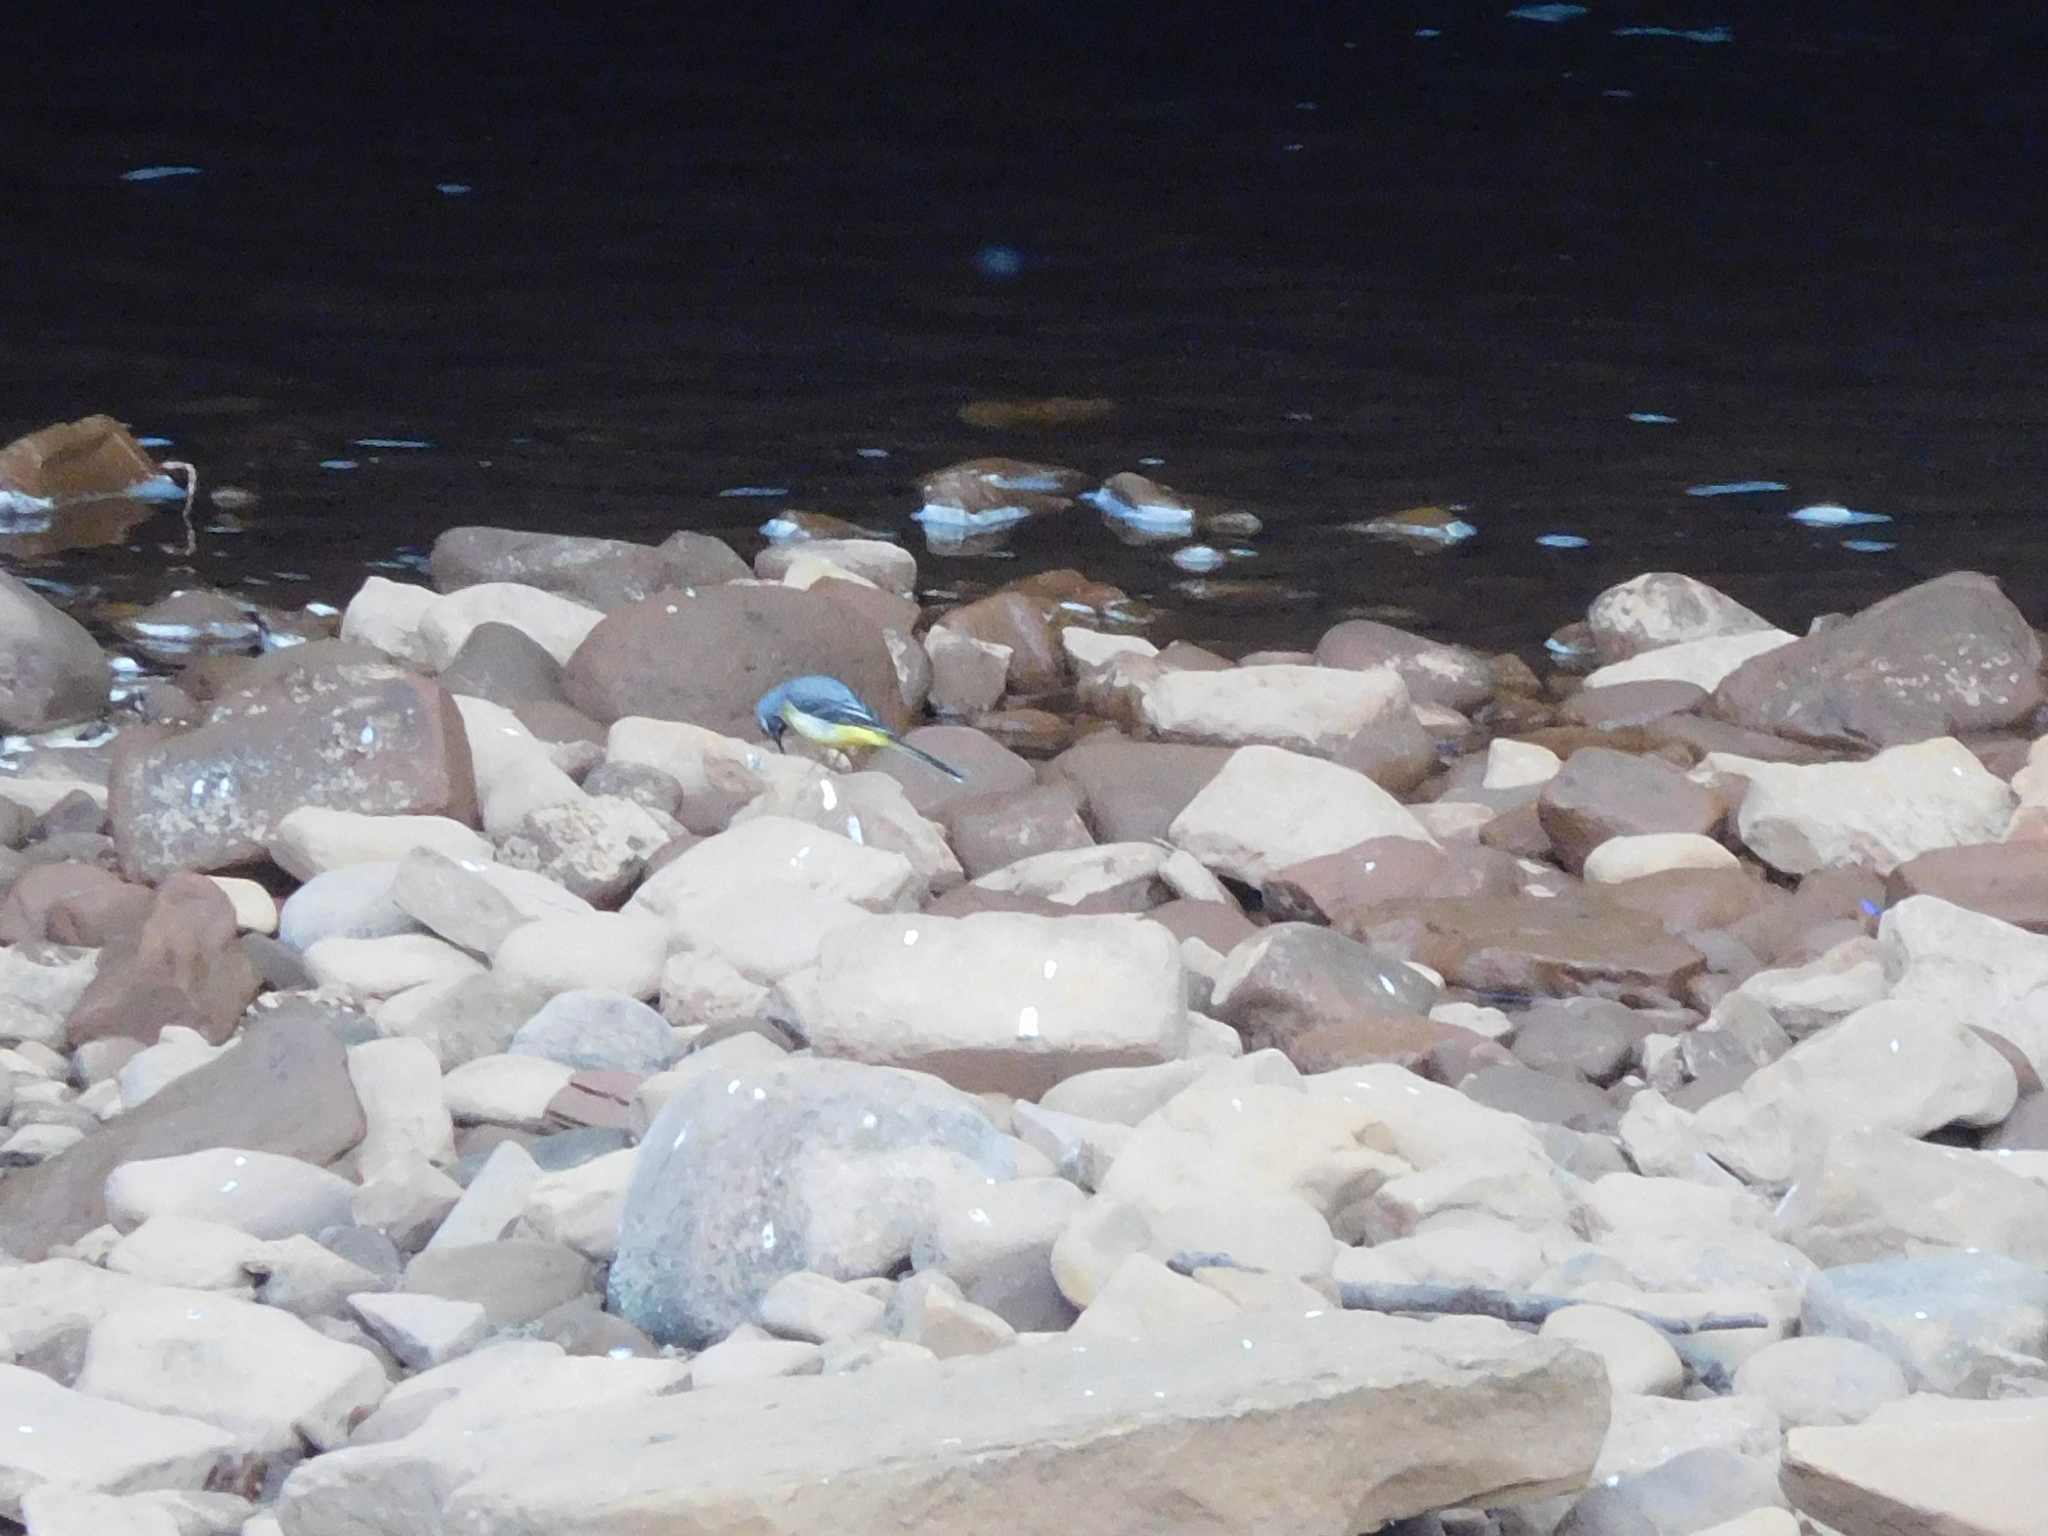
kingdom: Animalia
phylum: Chordata
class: Aves
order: Passeriformes
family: Motacillidae
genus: Motacilla
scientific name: Motacilla cinerea
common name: Grey wagtail
